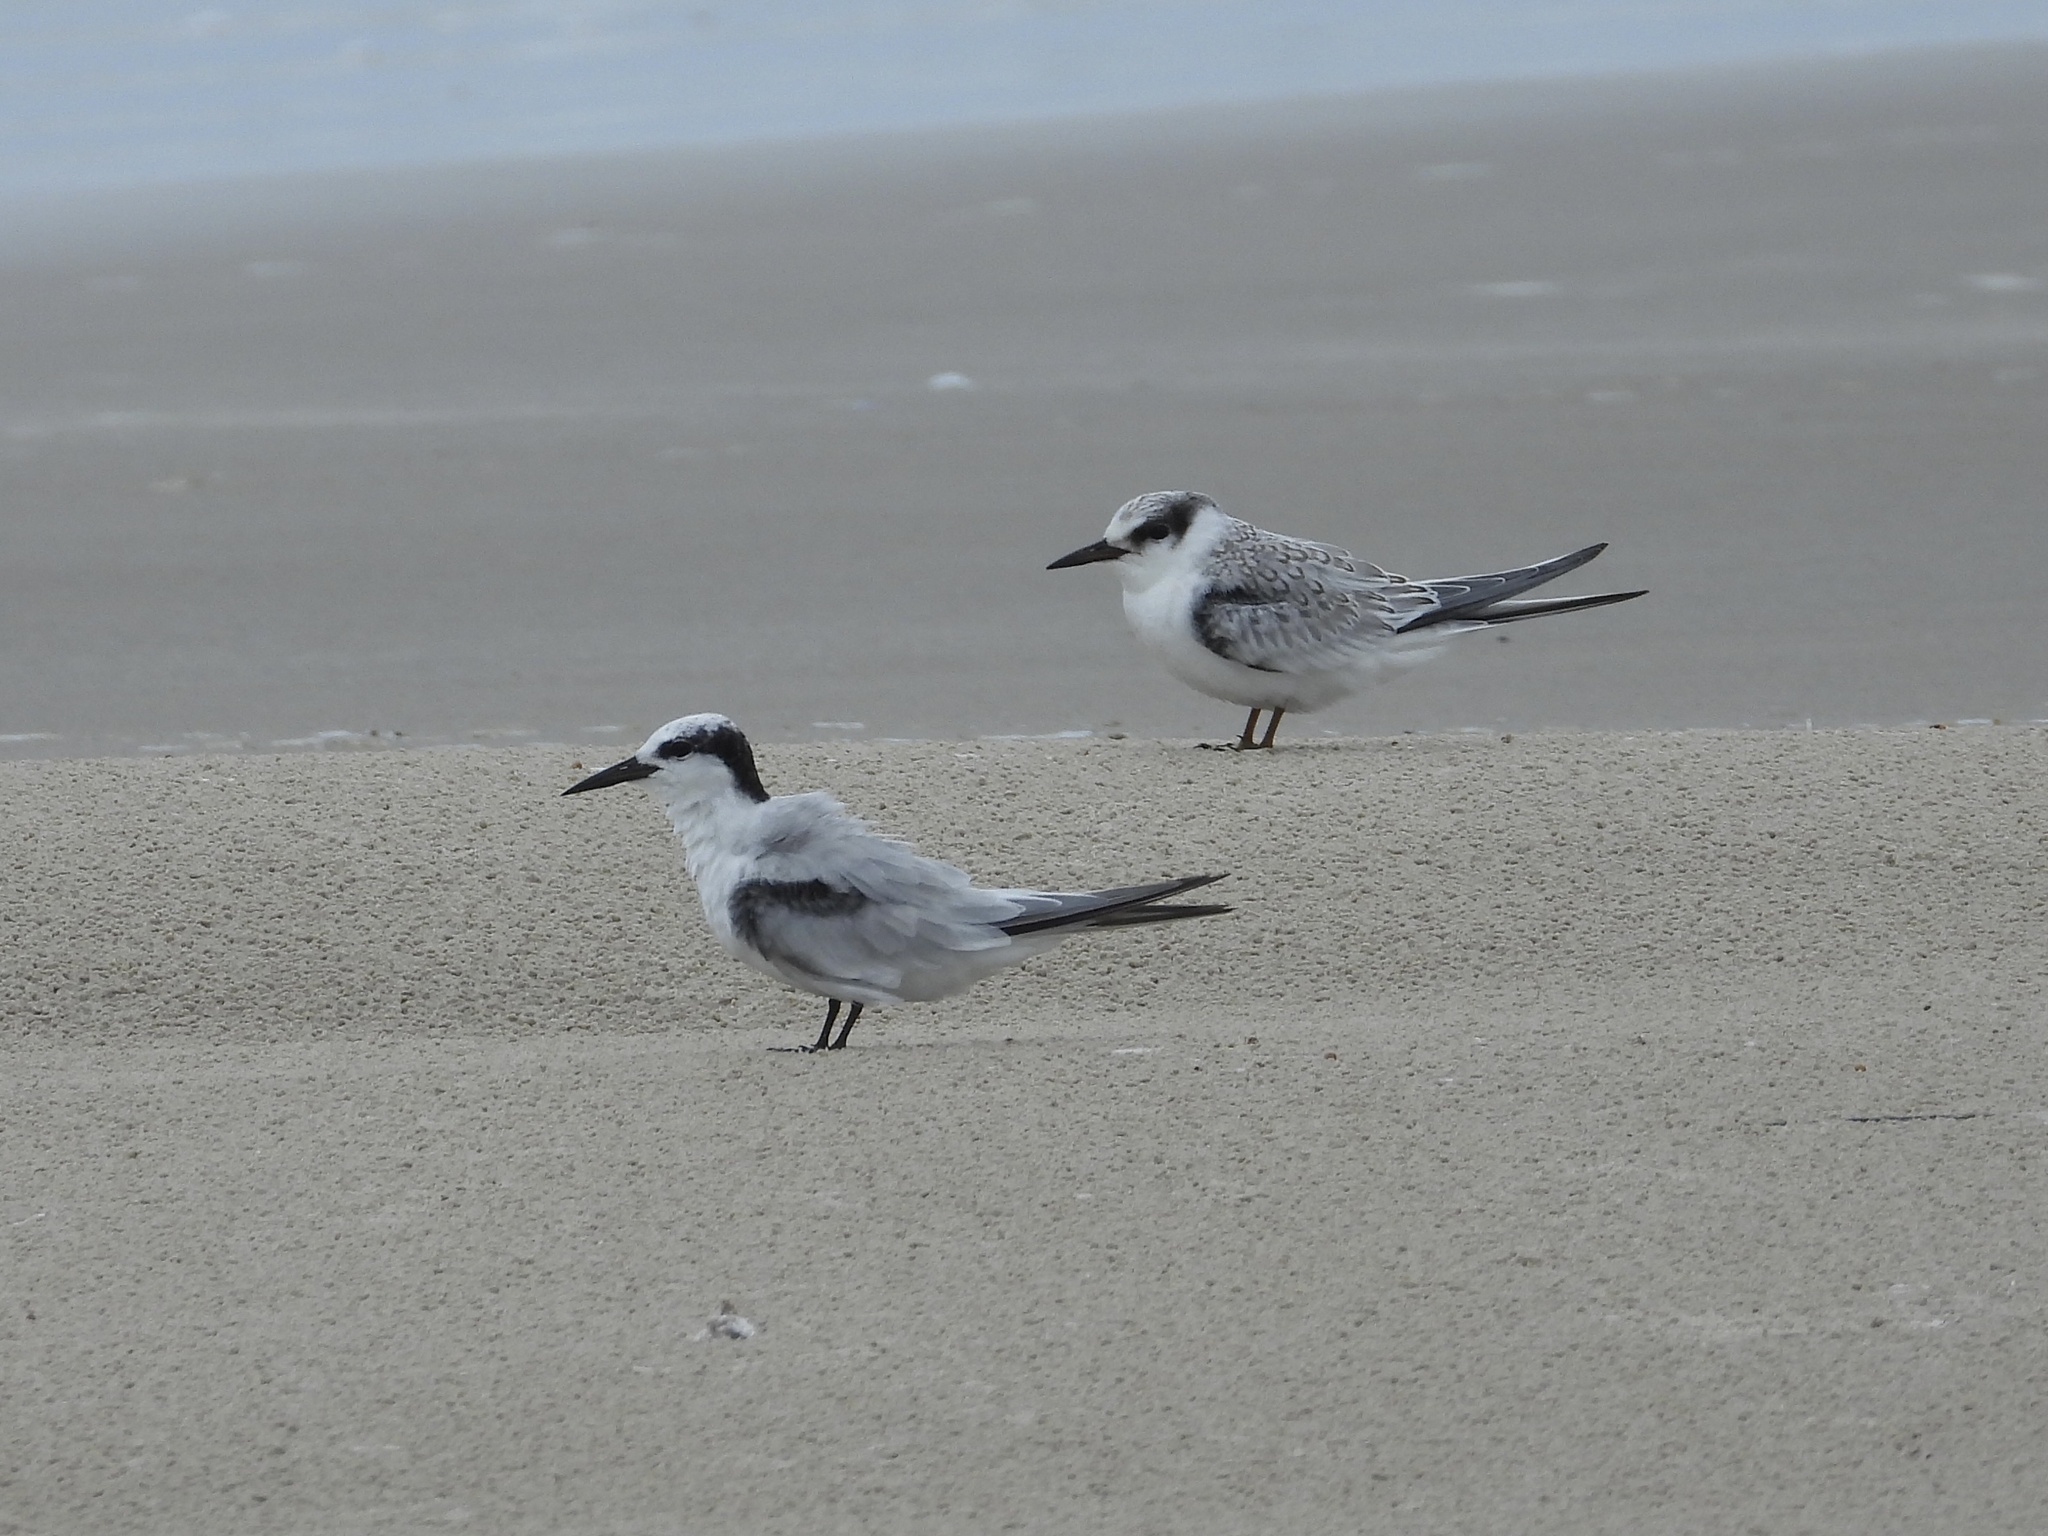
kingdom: Animalia
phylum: Chordata
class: Aves
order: Charadriiformes
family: Laridae
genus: Sternula
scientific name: Sternula antillarum
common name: Least tern
